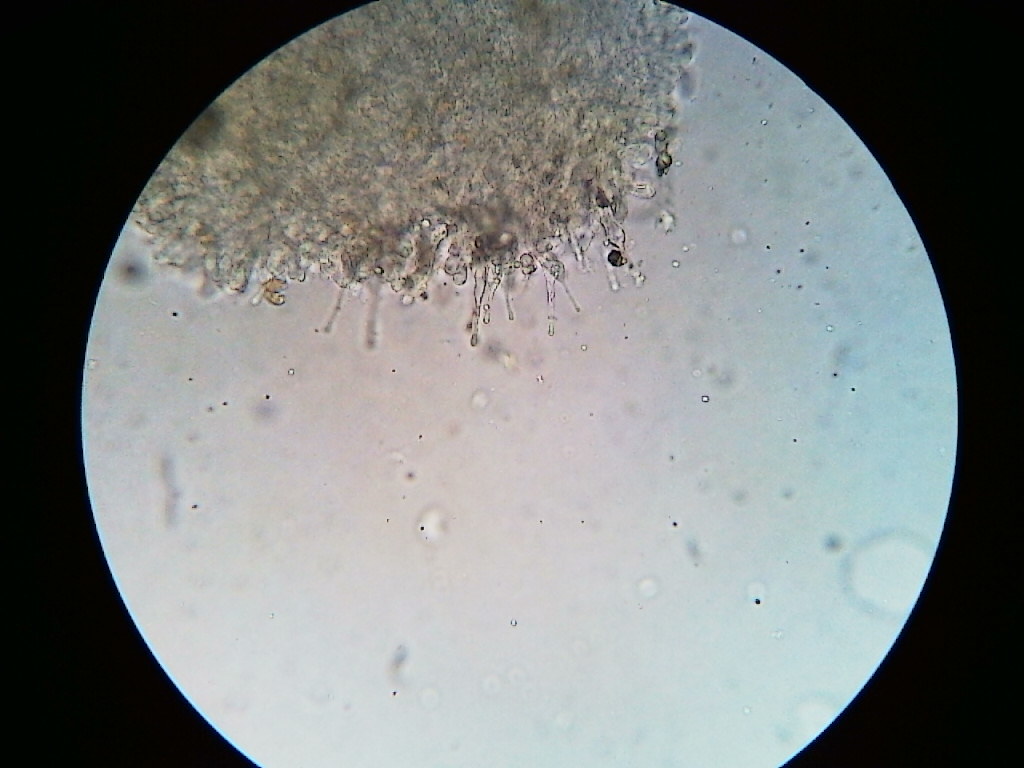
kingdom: Fungi
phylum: Basidiomycota
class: Agaricomycetes
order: Agaricales
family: Hymenogastraceae
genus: Galerina
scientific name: Galerina ampullaceocystis
